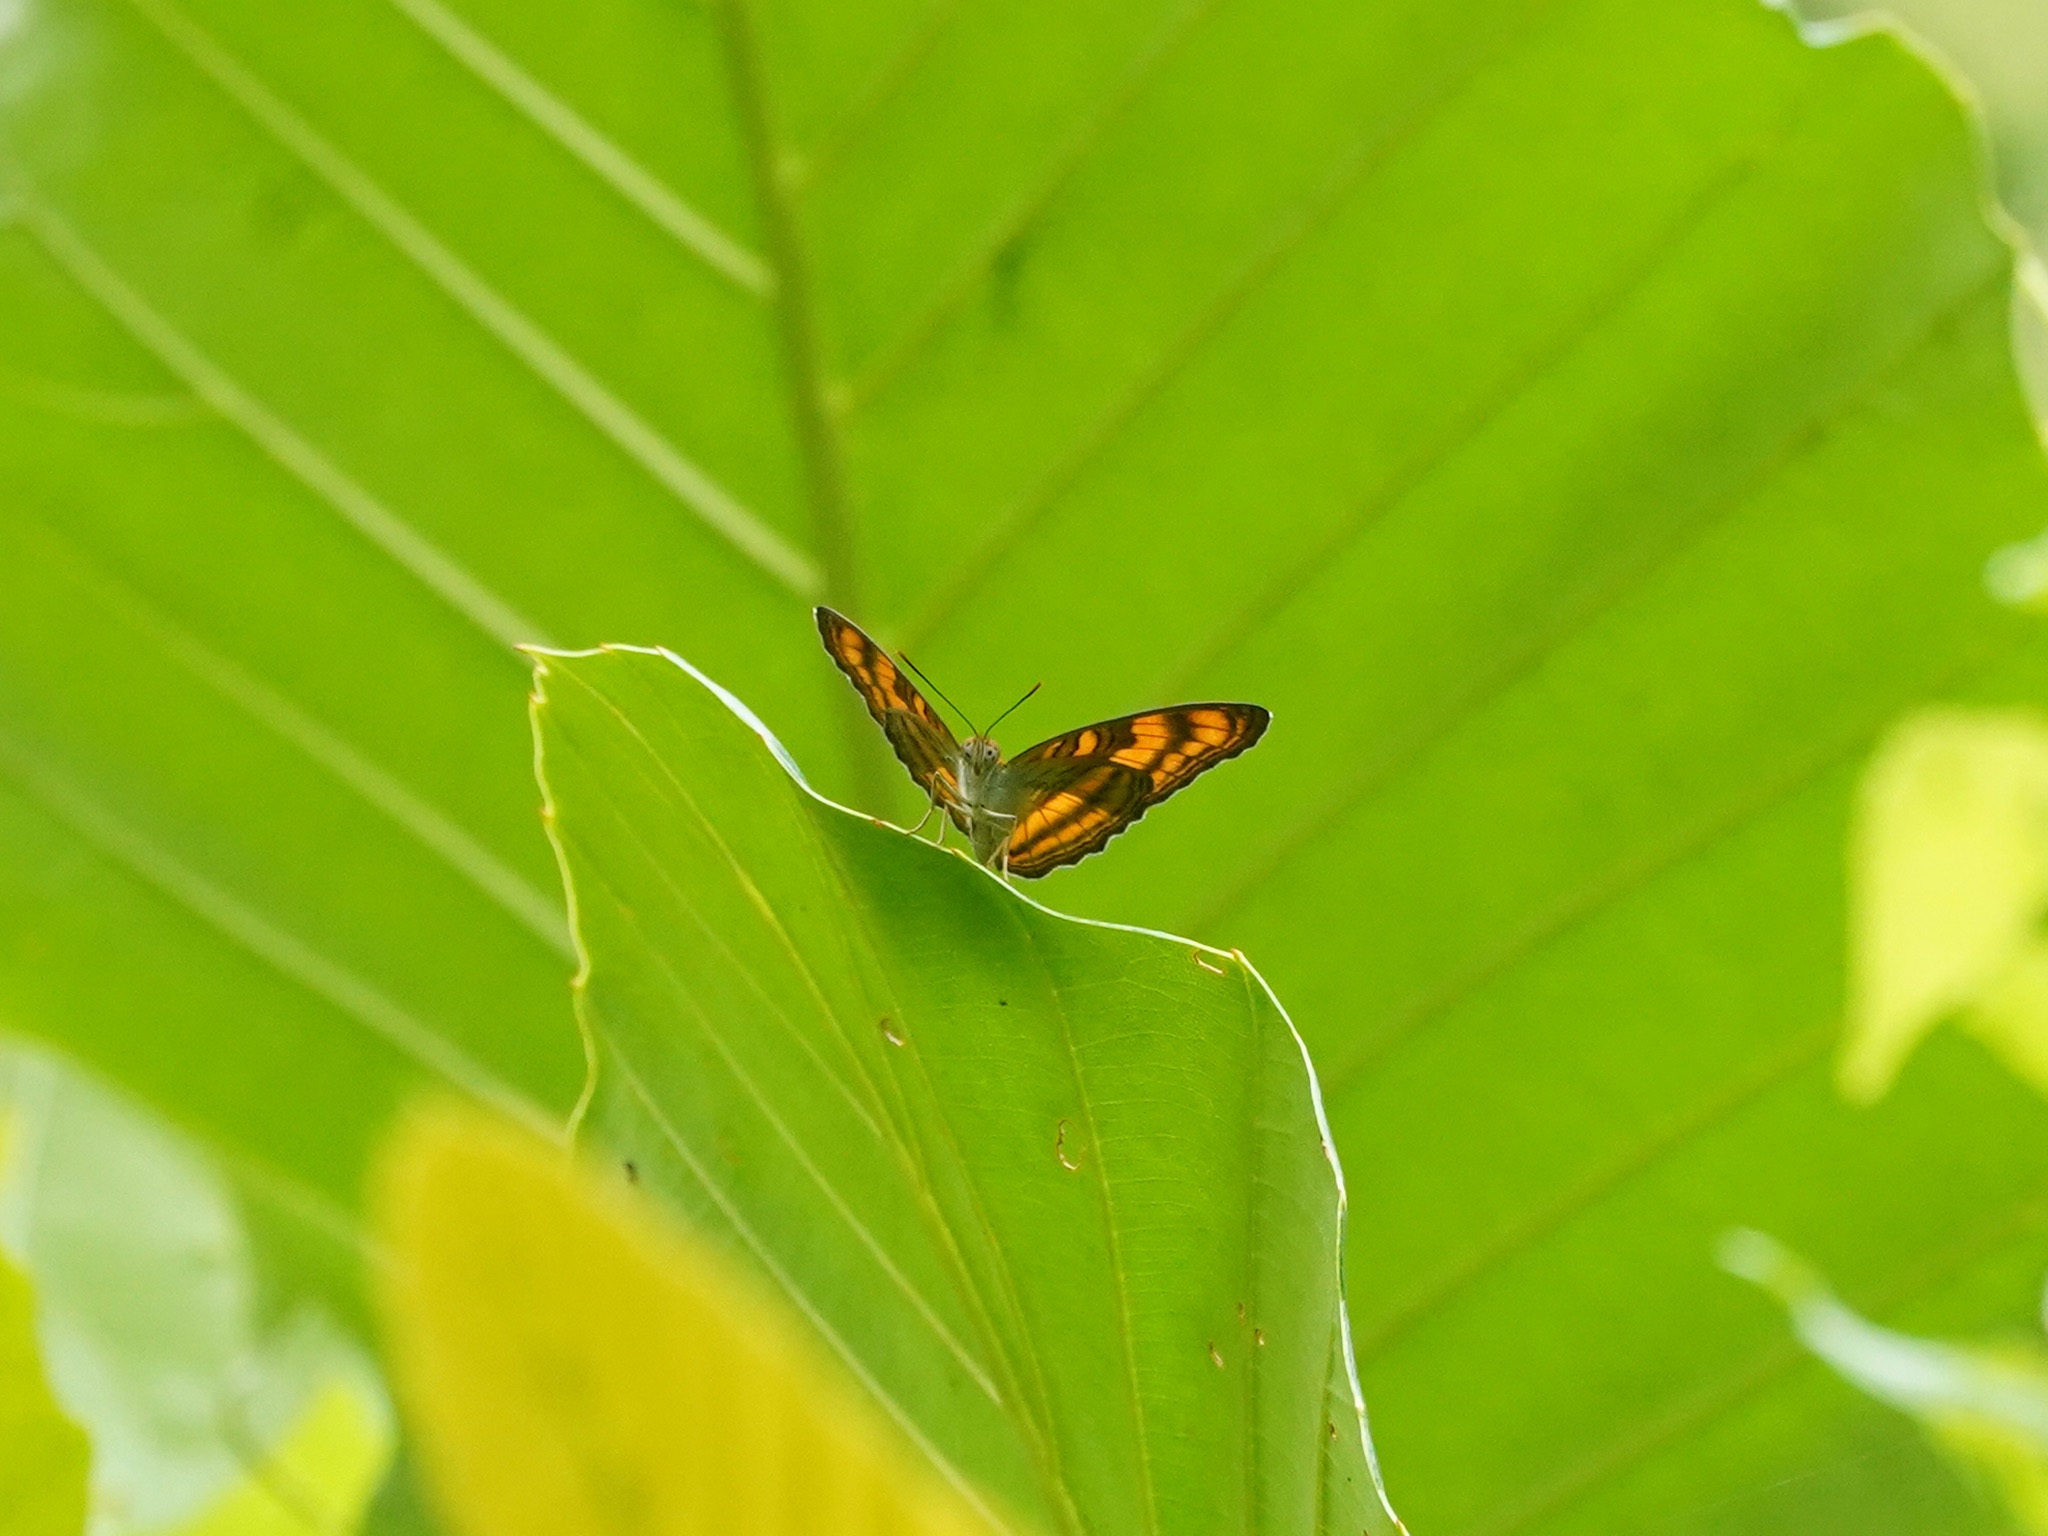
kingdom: Animalia
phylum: Arthropoda
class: Insecta
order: Lepidoptera
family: Nymphalidae
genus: Pandita
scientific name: Pandita sinope
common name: Colonel
